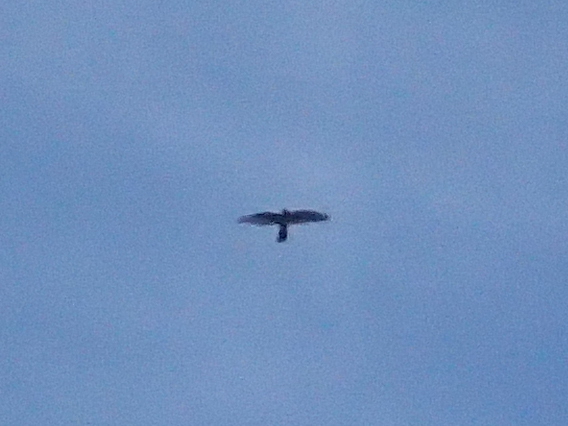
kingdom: Animalia
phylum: Chordata
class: Aves
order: Falconiformes
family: Falconidae
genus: Falco
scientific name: Falco novaeseelandiae
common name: New zealand falcon
